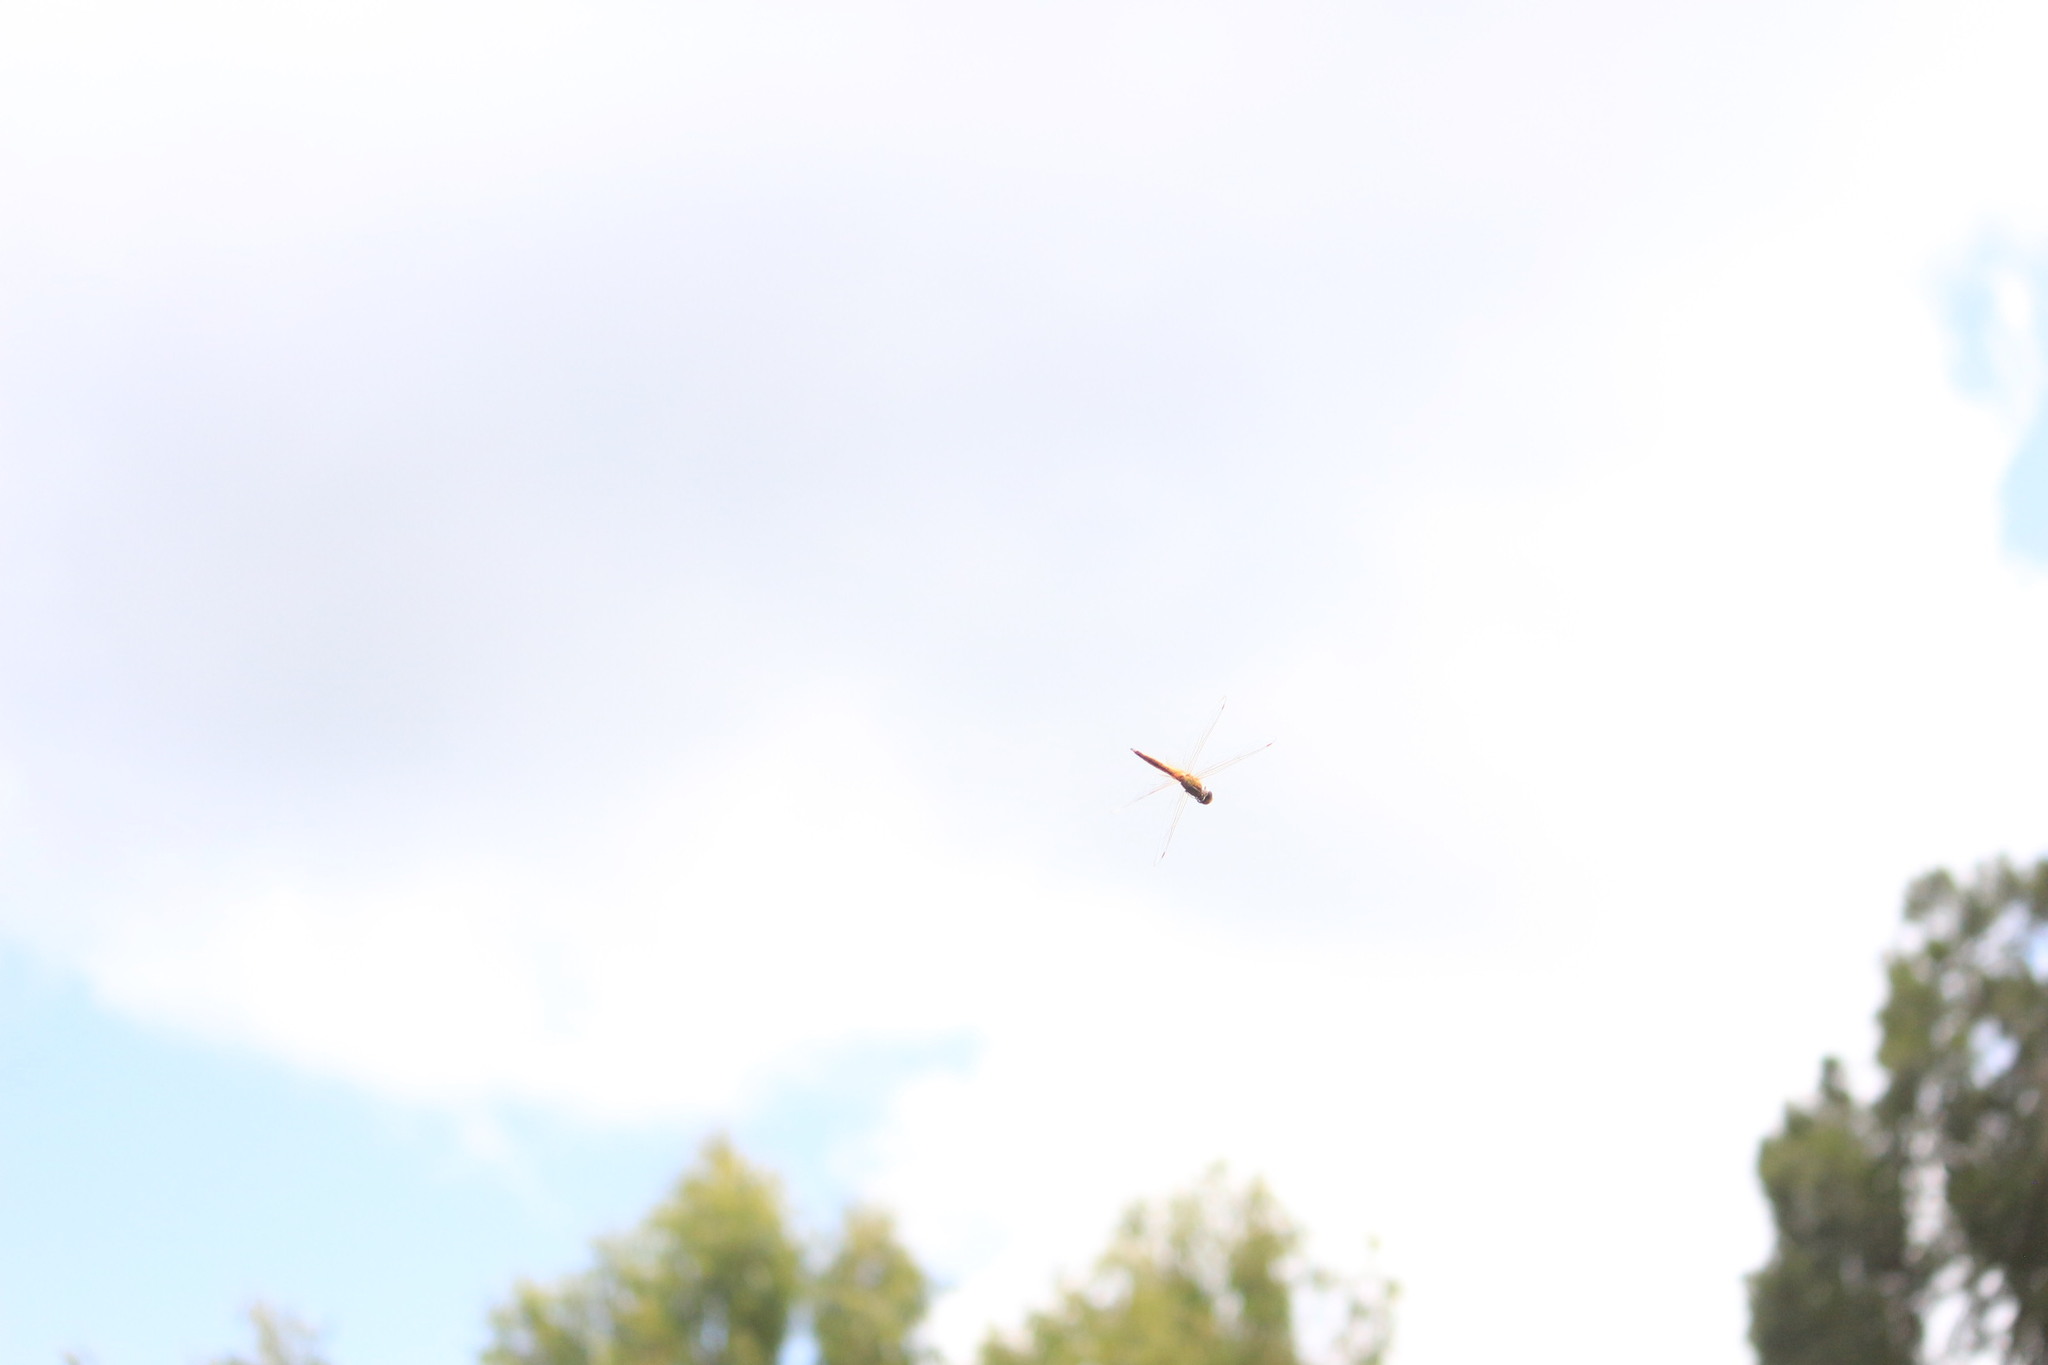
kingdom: Animalia
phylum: Arthropoda
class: Insecta
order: Odonata
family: Libellulidae
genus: Pantala
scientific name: Pantala flavescens
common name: Wandering glider
